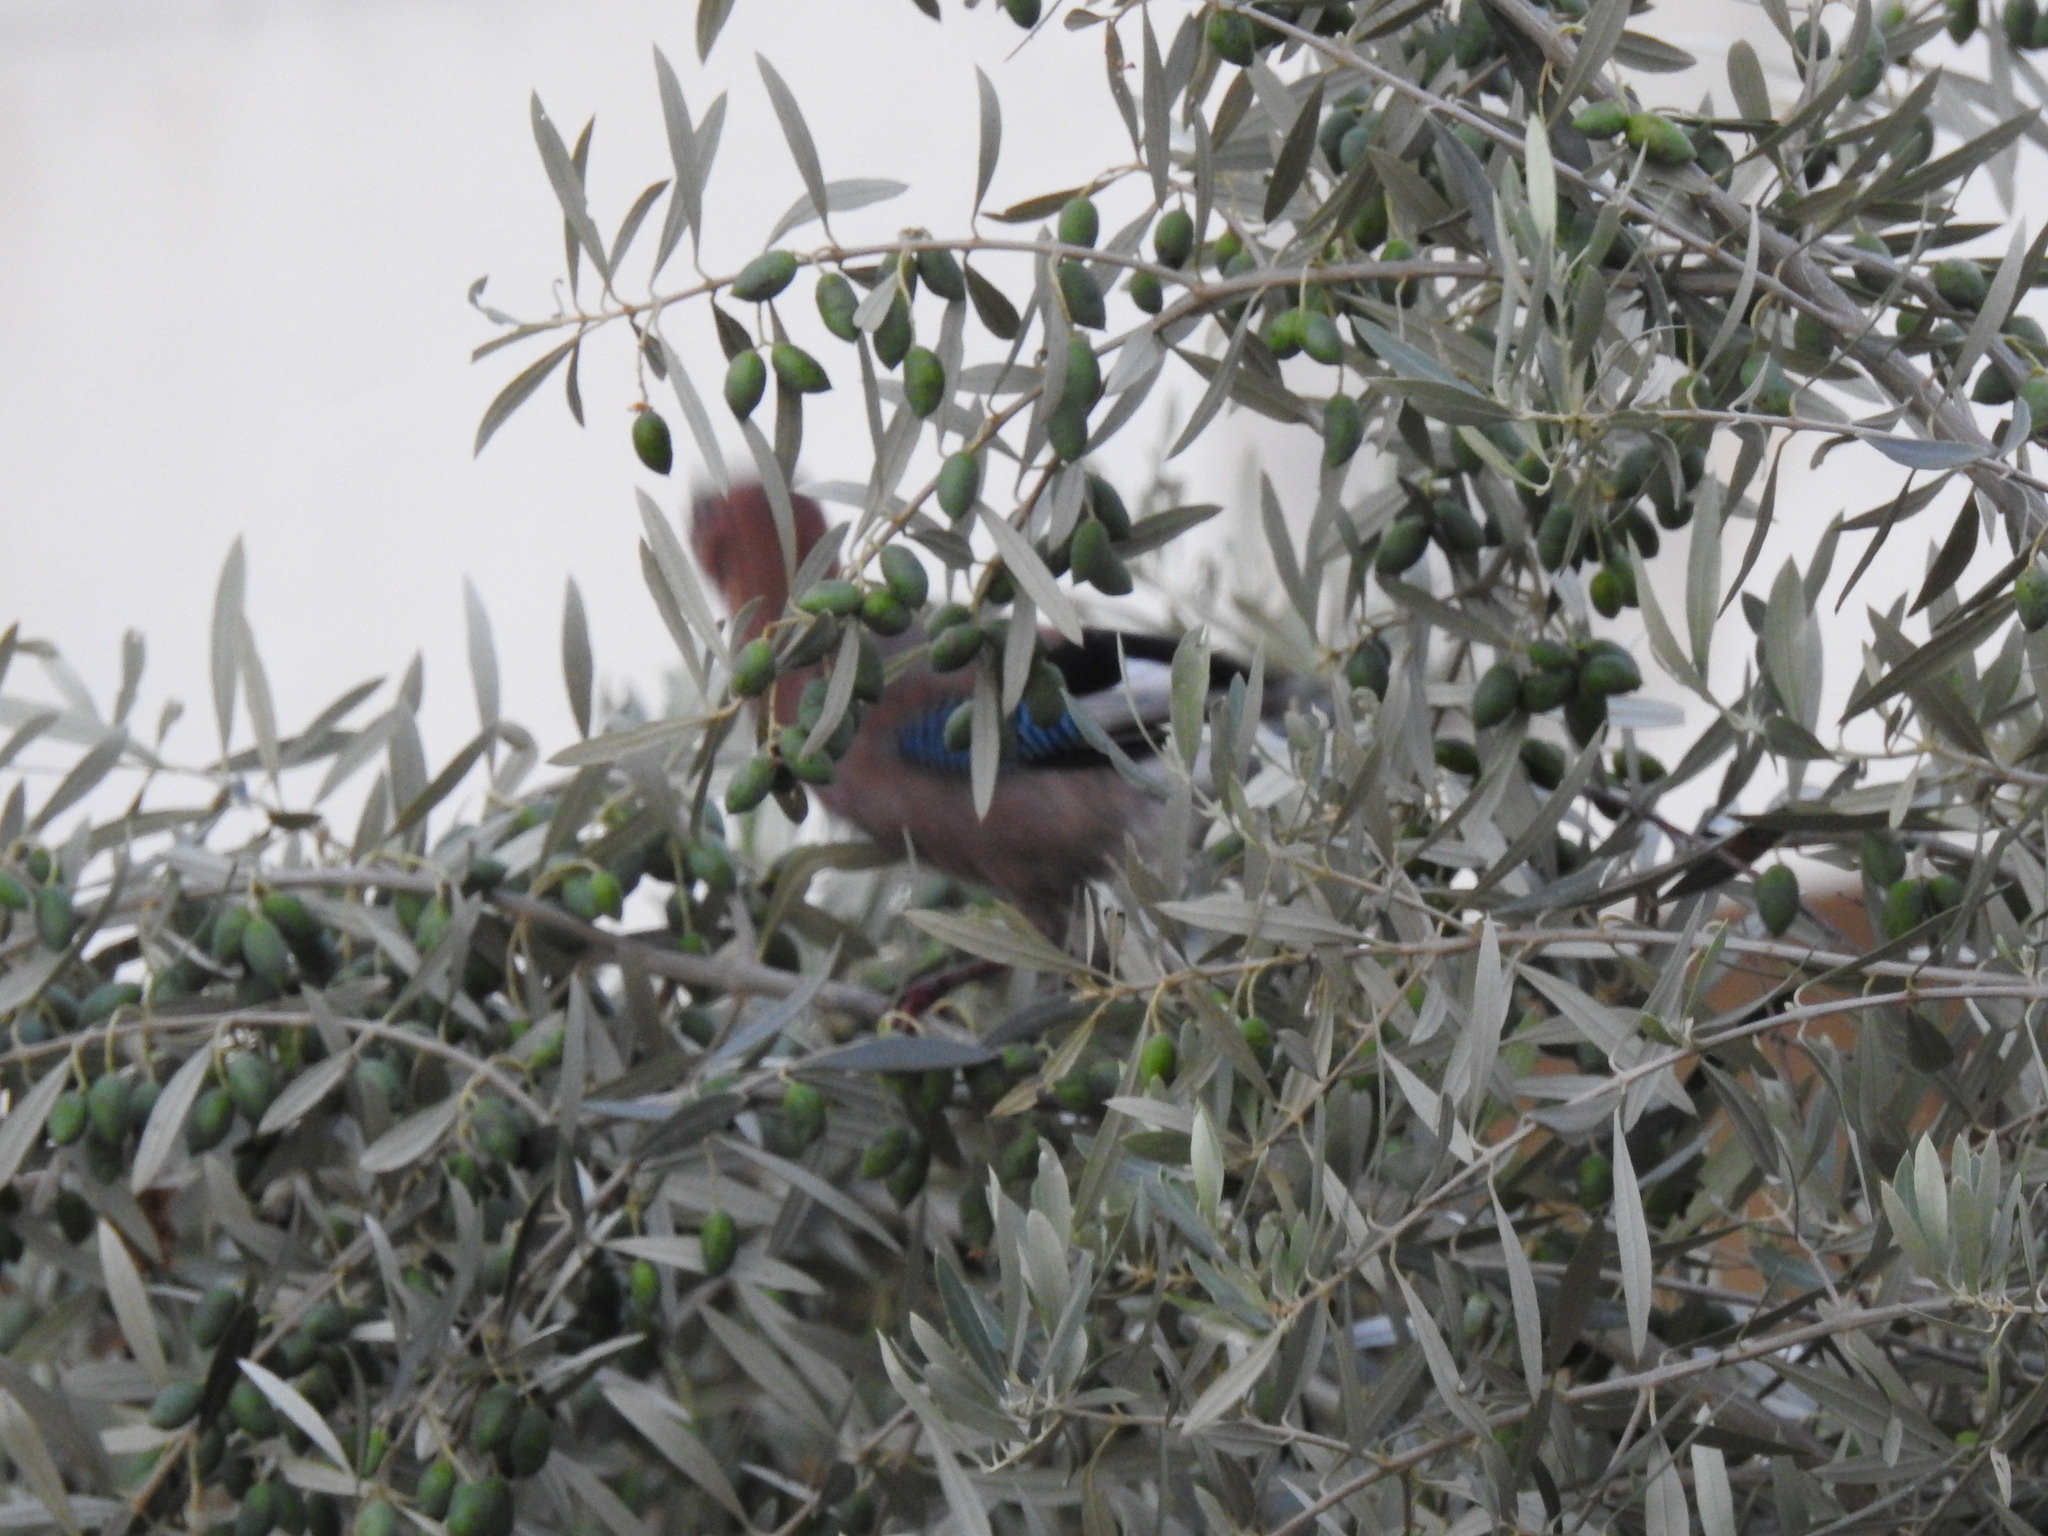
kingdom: Animalia
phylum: Chordata
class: Aves
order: Passeriformes
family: Corvidae
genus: Garrulus
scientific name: Garrulus glandarius
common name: Eurasian jay
